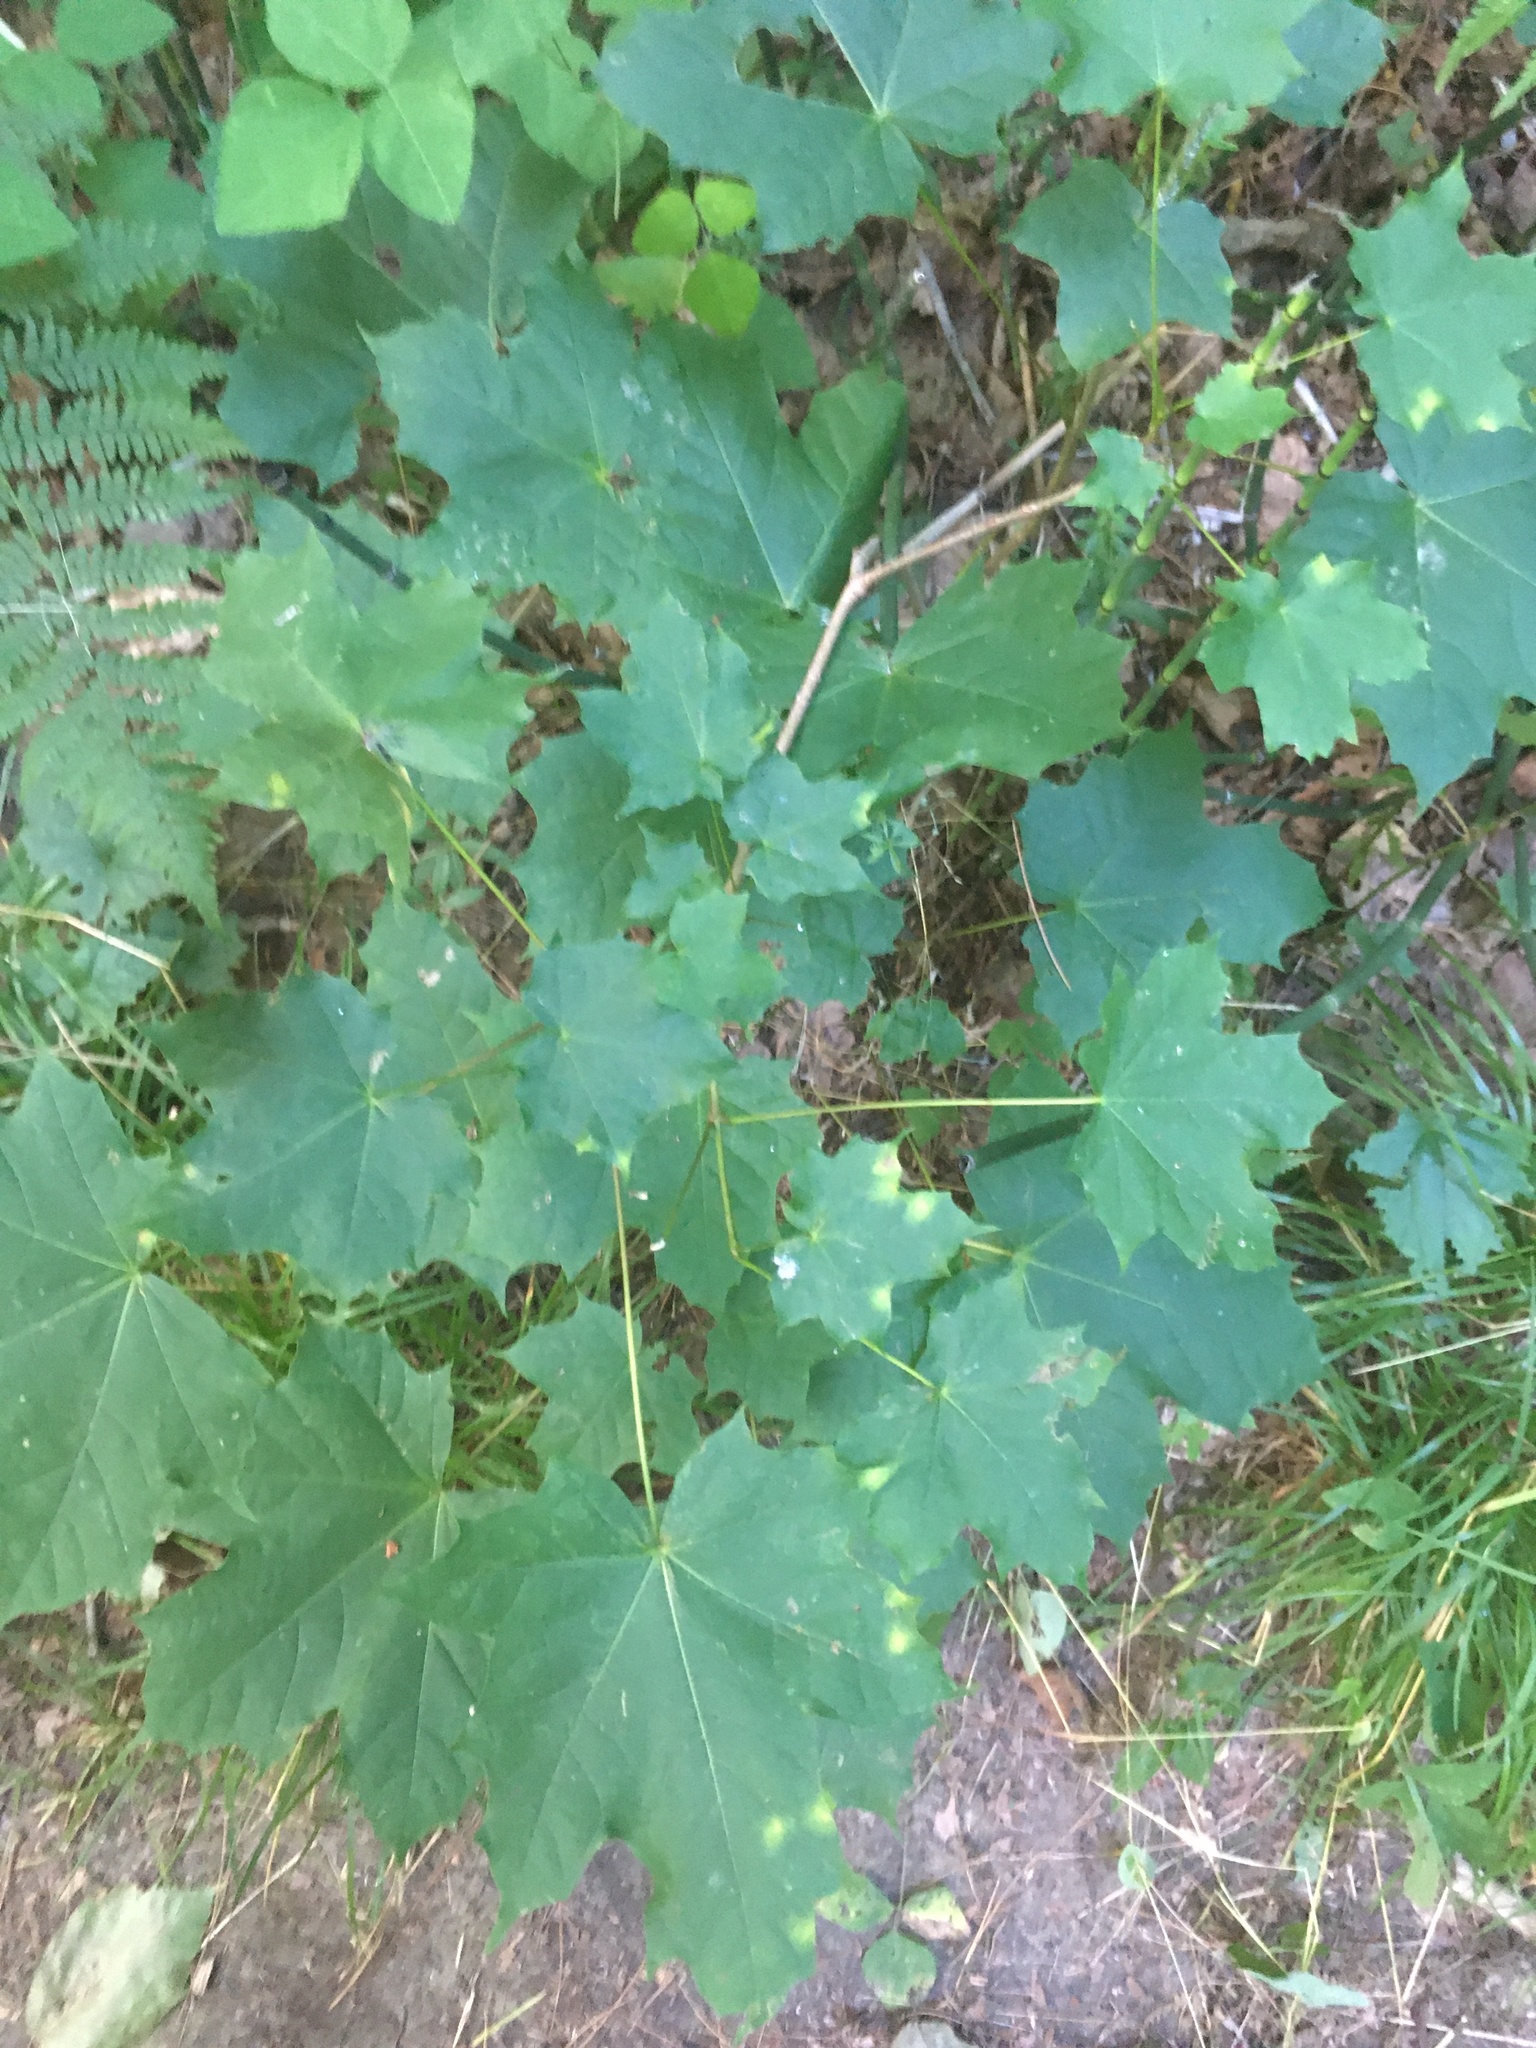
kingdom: Plantae
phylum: Tracheophyta
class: Magnoliopsida
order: Sapindales
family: Sapindaceae
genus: Acer
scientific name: Acer platanoides
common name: Norway maple
